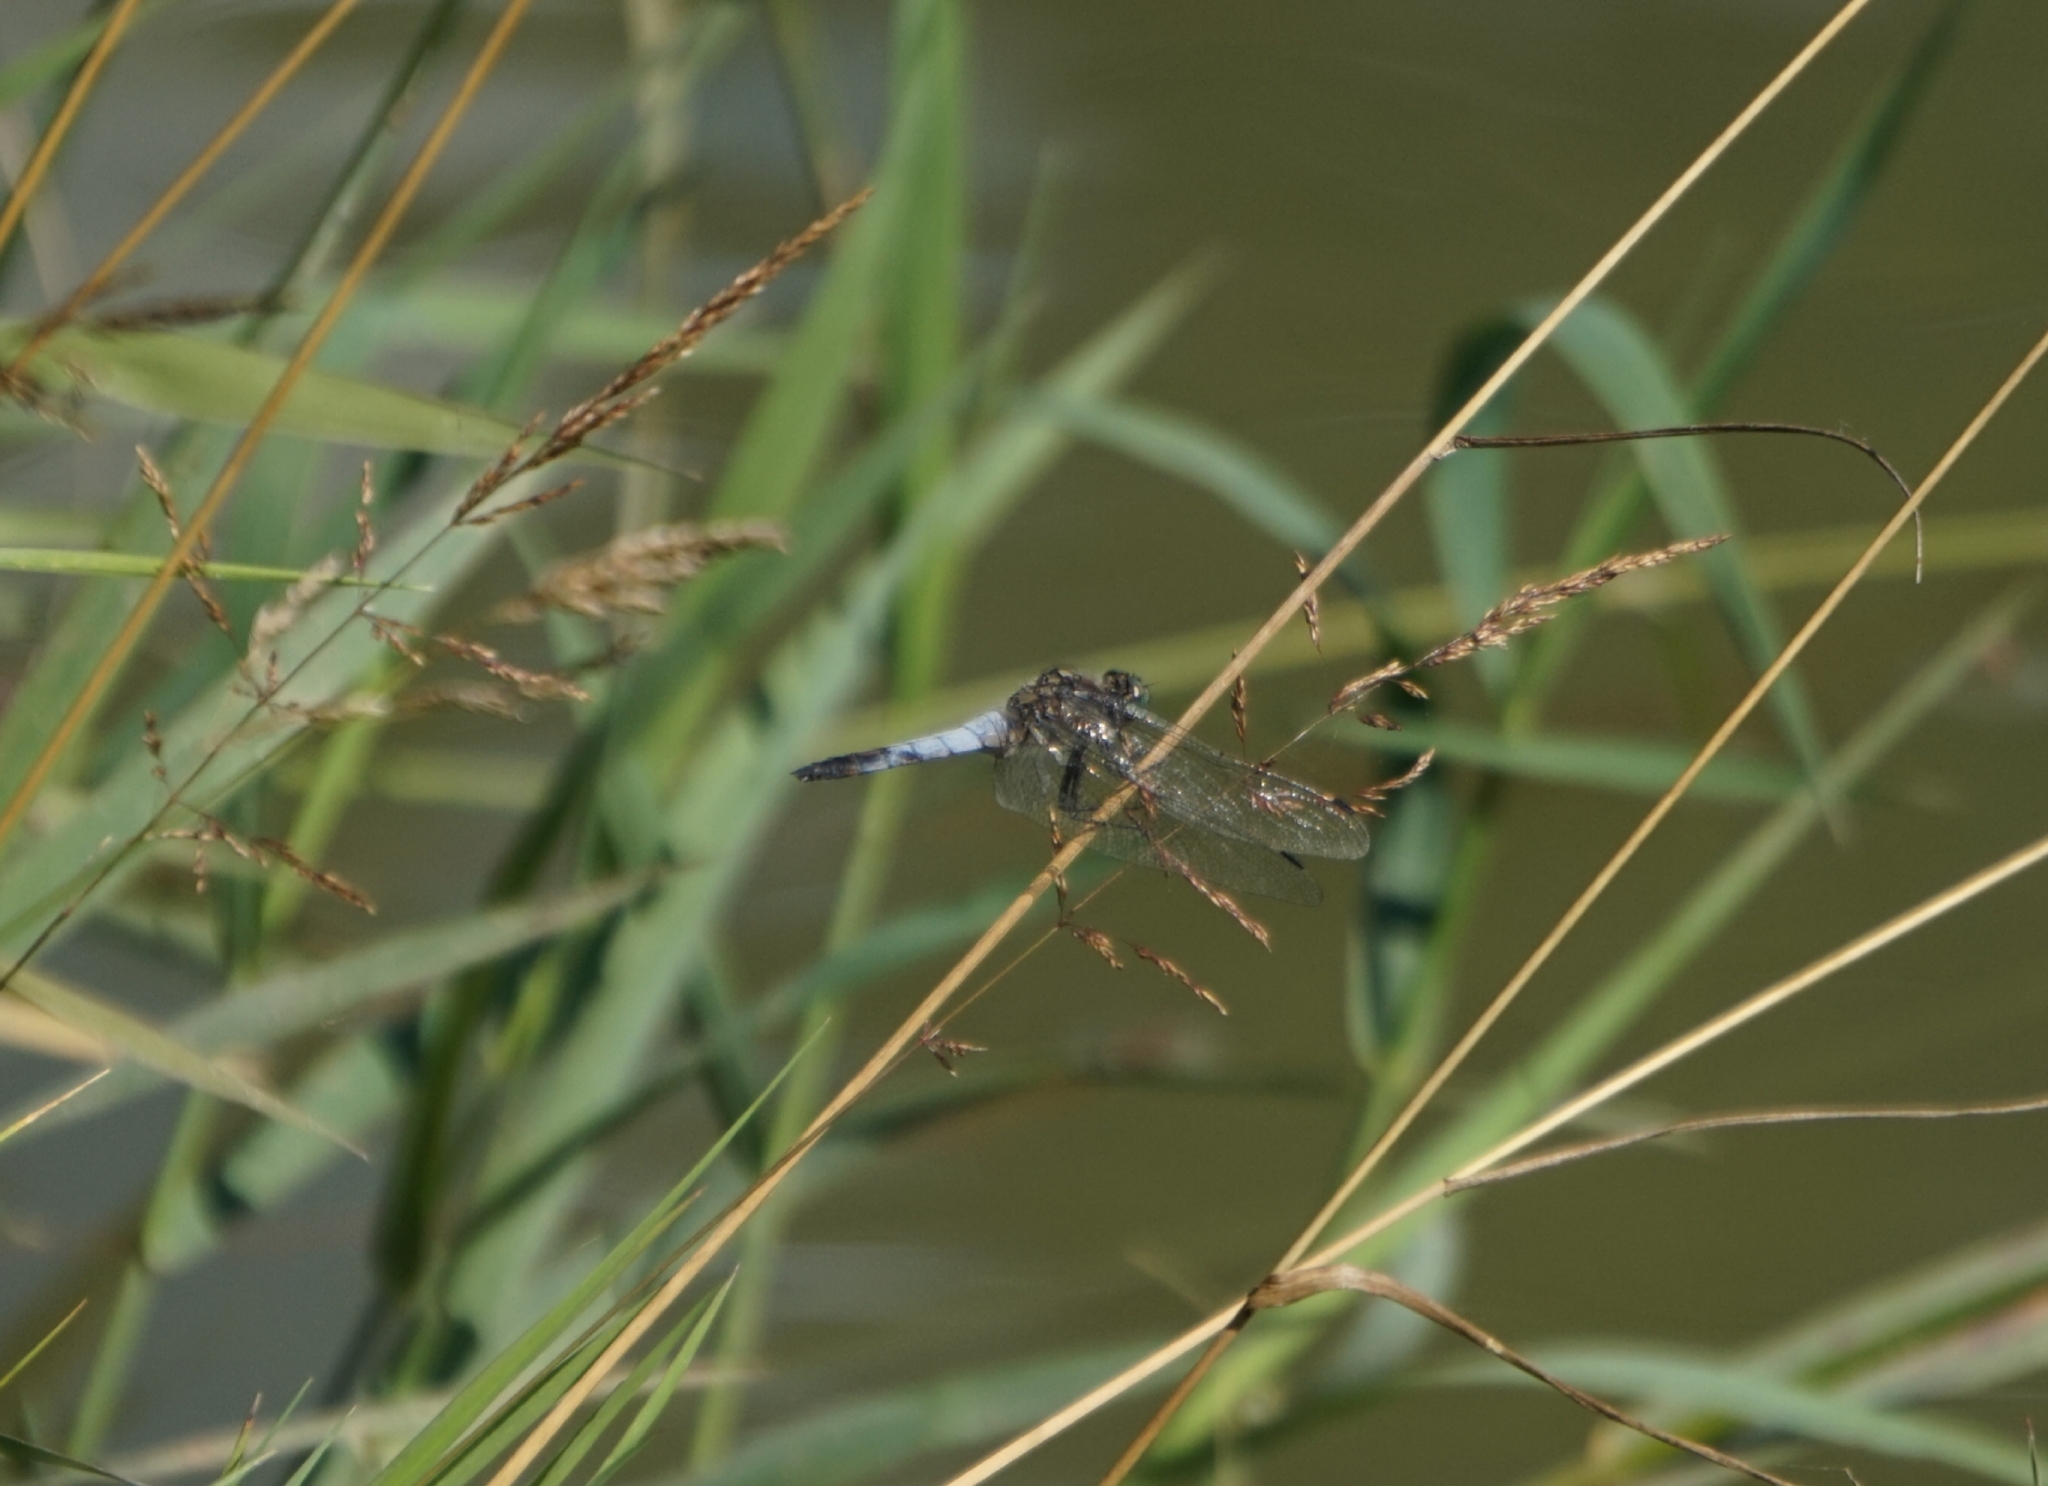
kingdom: Animalia
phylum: Arthropoda
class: Insecta
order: Odonata
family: Libellulidae
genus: Orthetrum
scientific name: Orthetrum cancellatum
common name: Black-tailed skimmer
